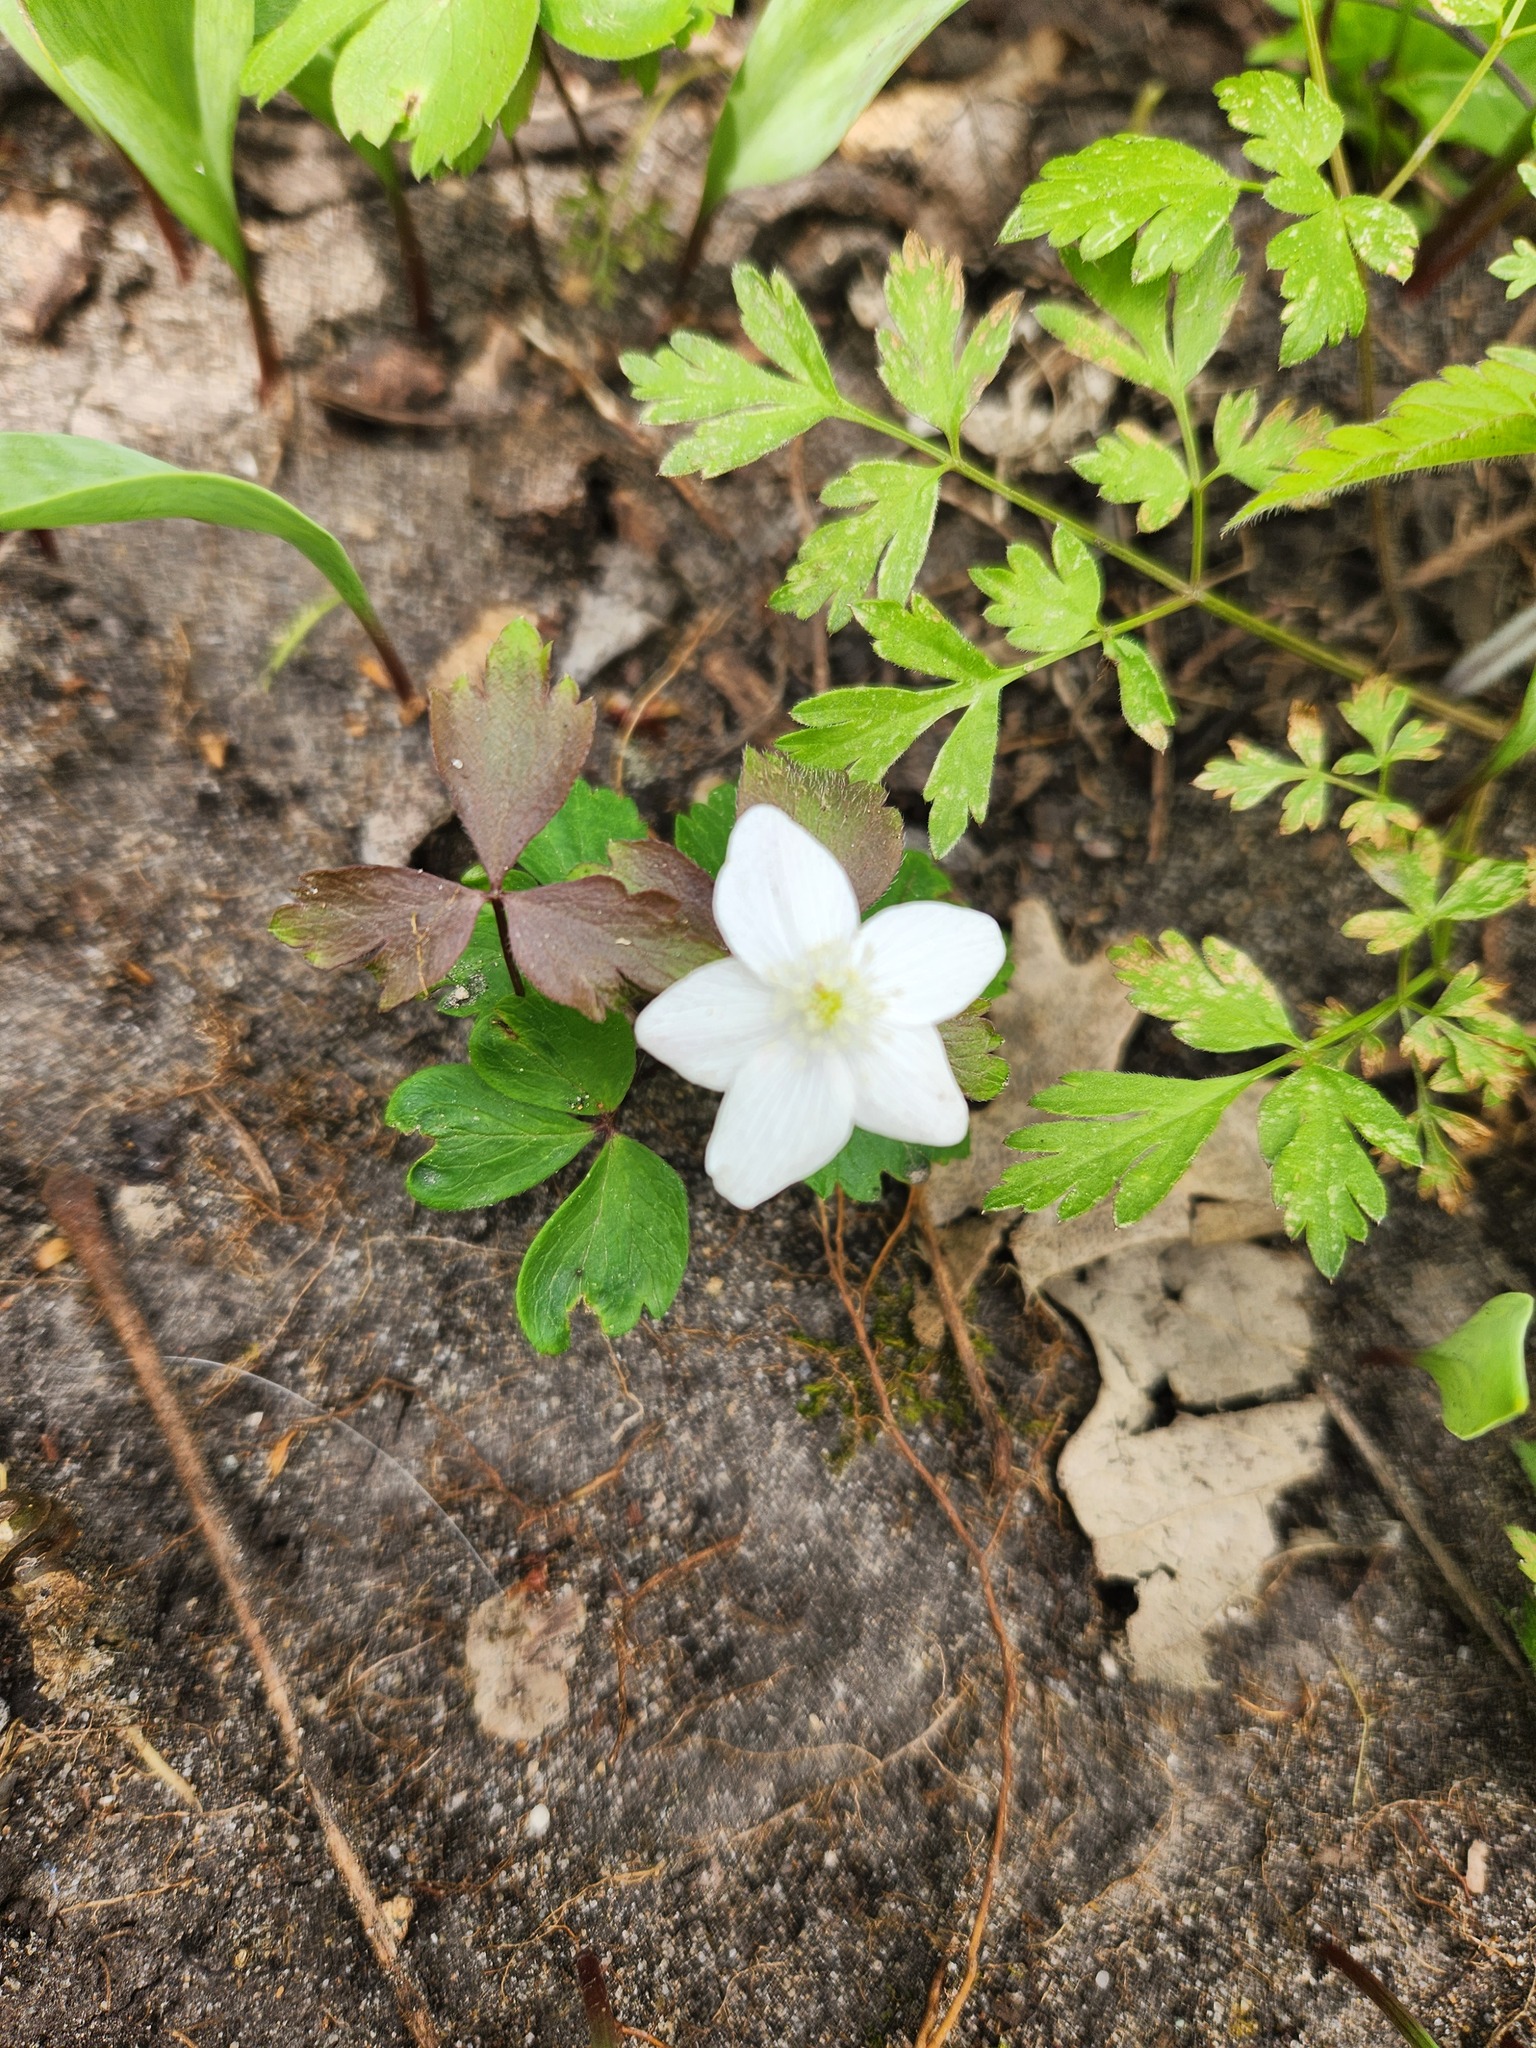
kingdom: Plantae
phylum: Tracheophyta
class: Magnoliopsida
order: Ranunculales
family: Ranunculaceae
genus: Anemone
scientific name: Anemone quinquefolia
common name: Wood anemone
